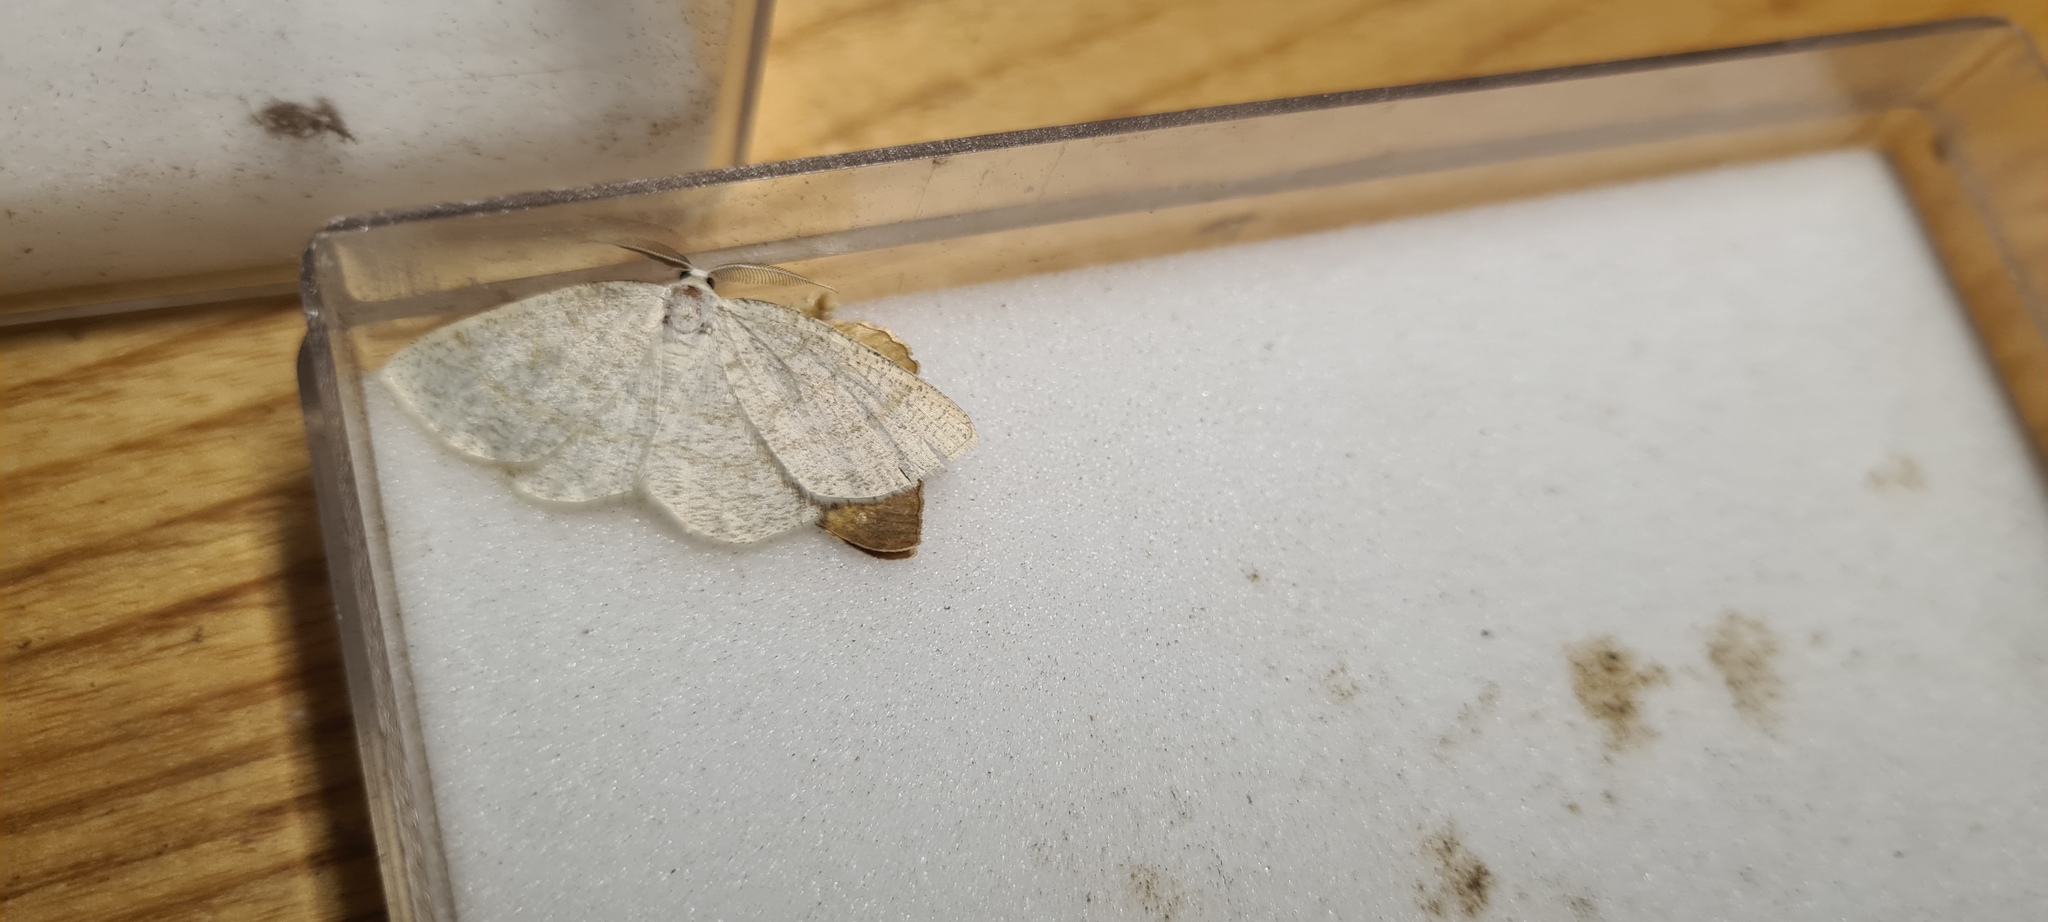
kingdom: Animalia
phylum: Arthropoda
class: Insecta
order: Lepidoptera
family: Geometridae
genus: Cabera
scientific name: Cabera exanthemata
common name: Common wave
